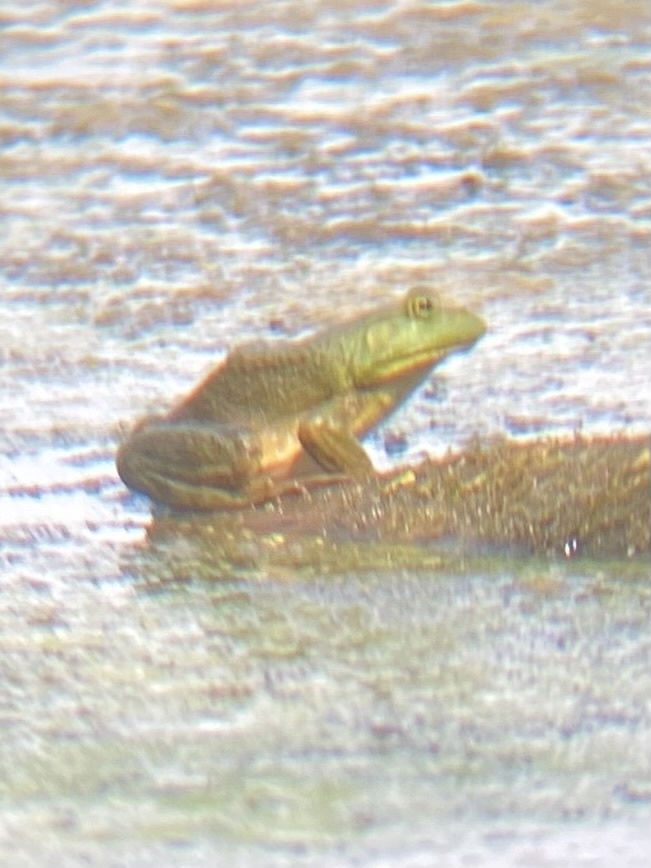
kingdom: Animalia
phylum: Chordata
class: Amphibia
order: Anura
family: Ranidae
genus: Lithobates
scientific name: Lithobates catesbeianus
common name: American bullfrog
